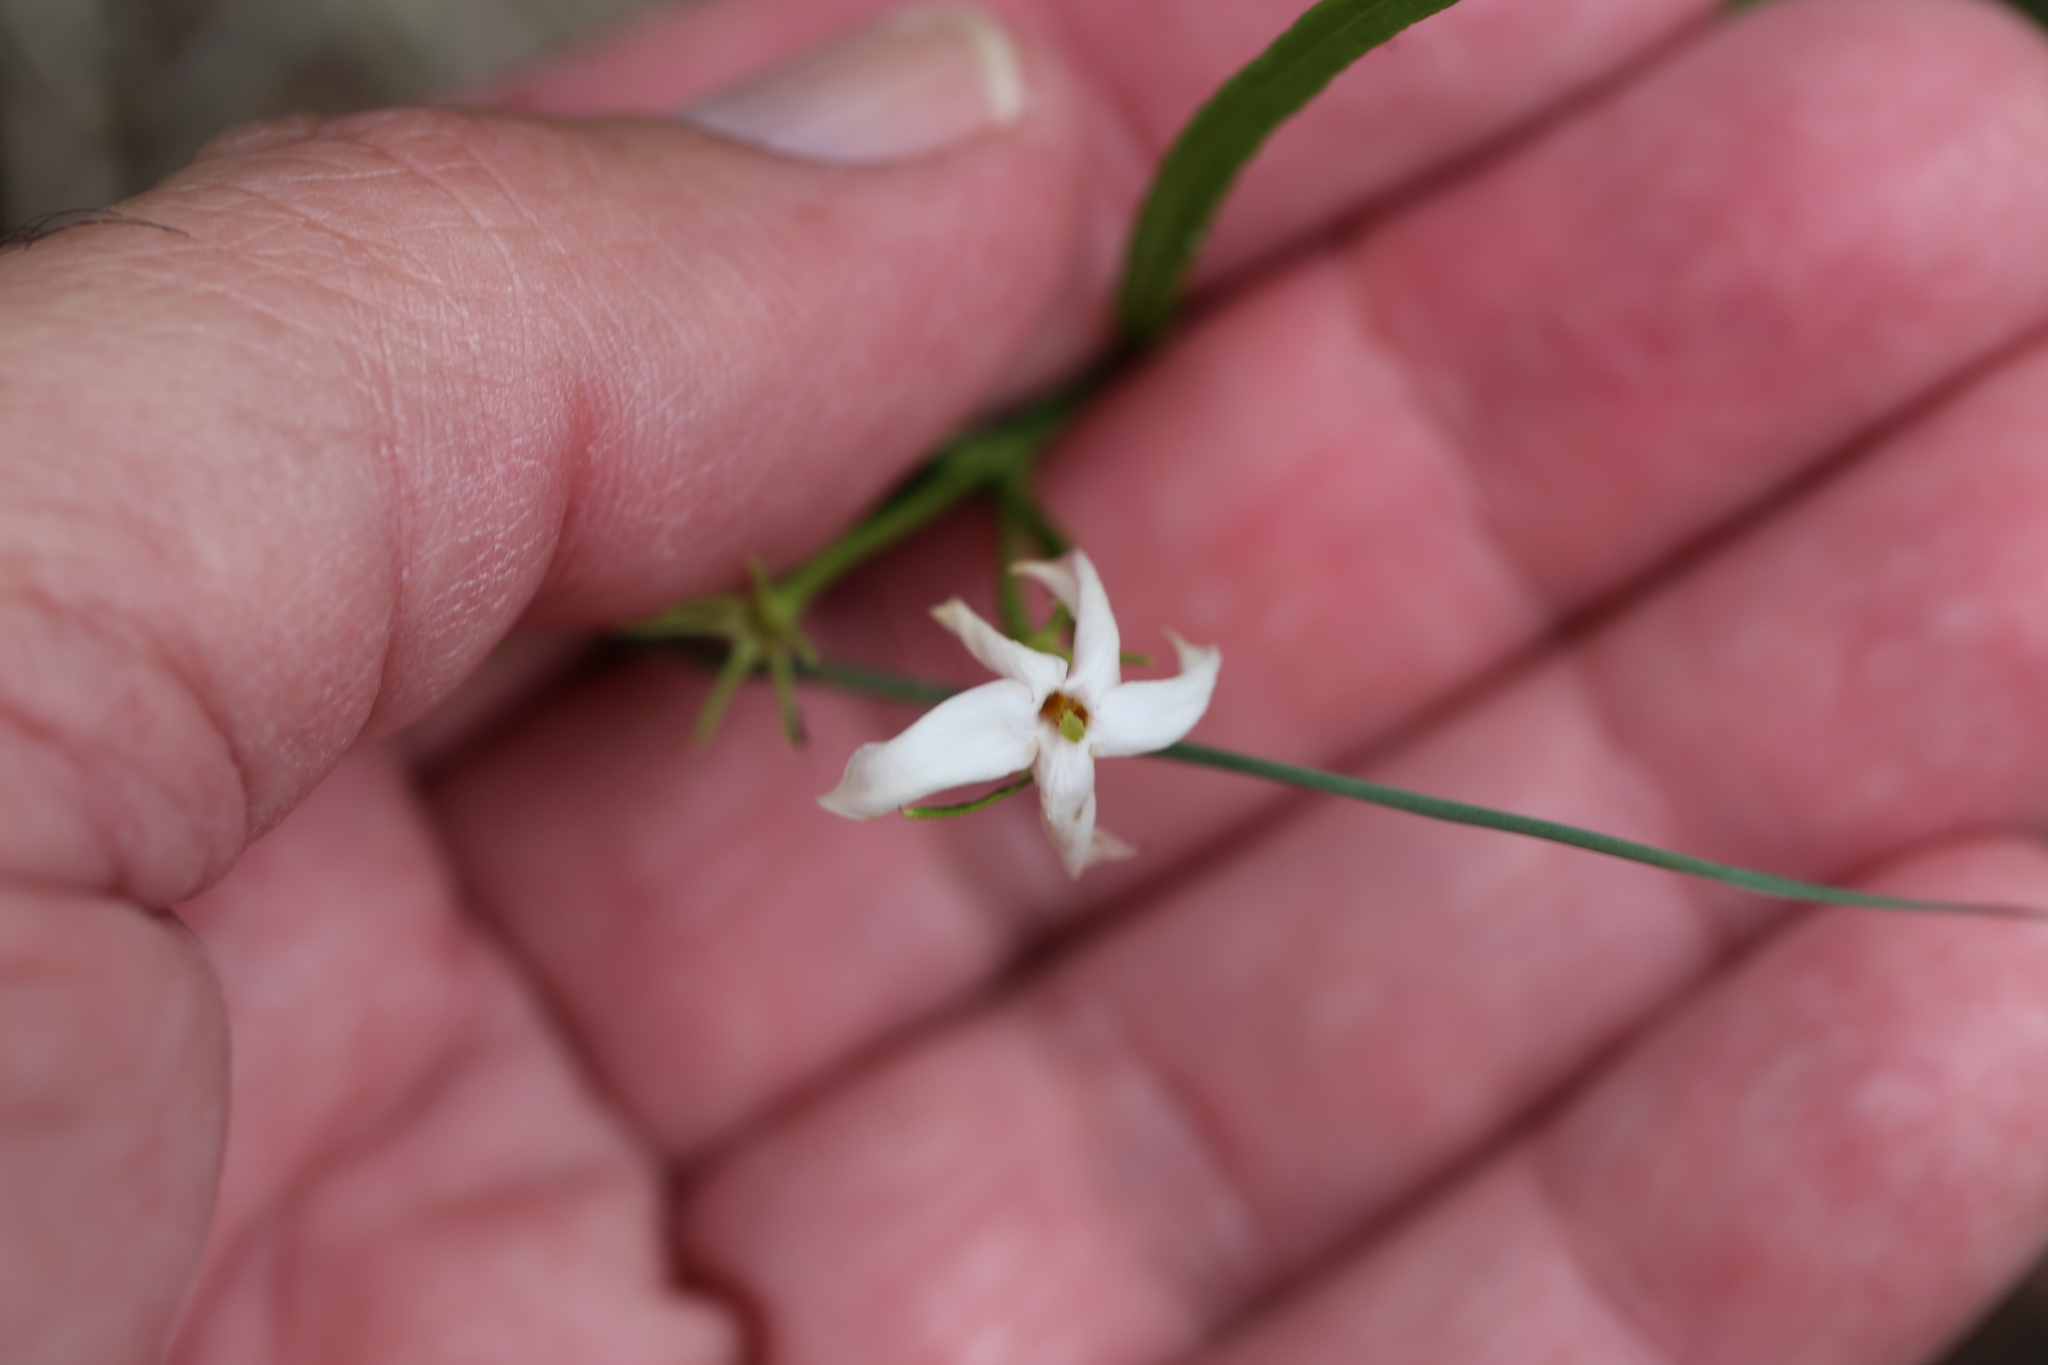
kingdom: Plantae
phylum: Tracheophyta
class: Magnoliopsida
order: Lamiales
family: Oleaceae
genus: Jasminum
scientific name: Jasminum simplicifolium
